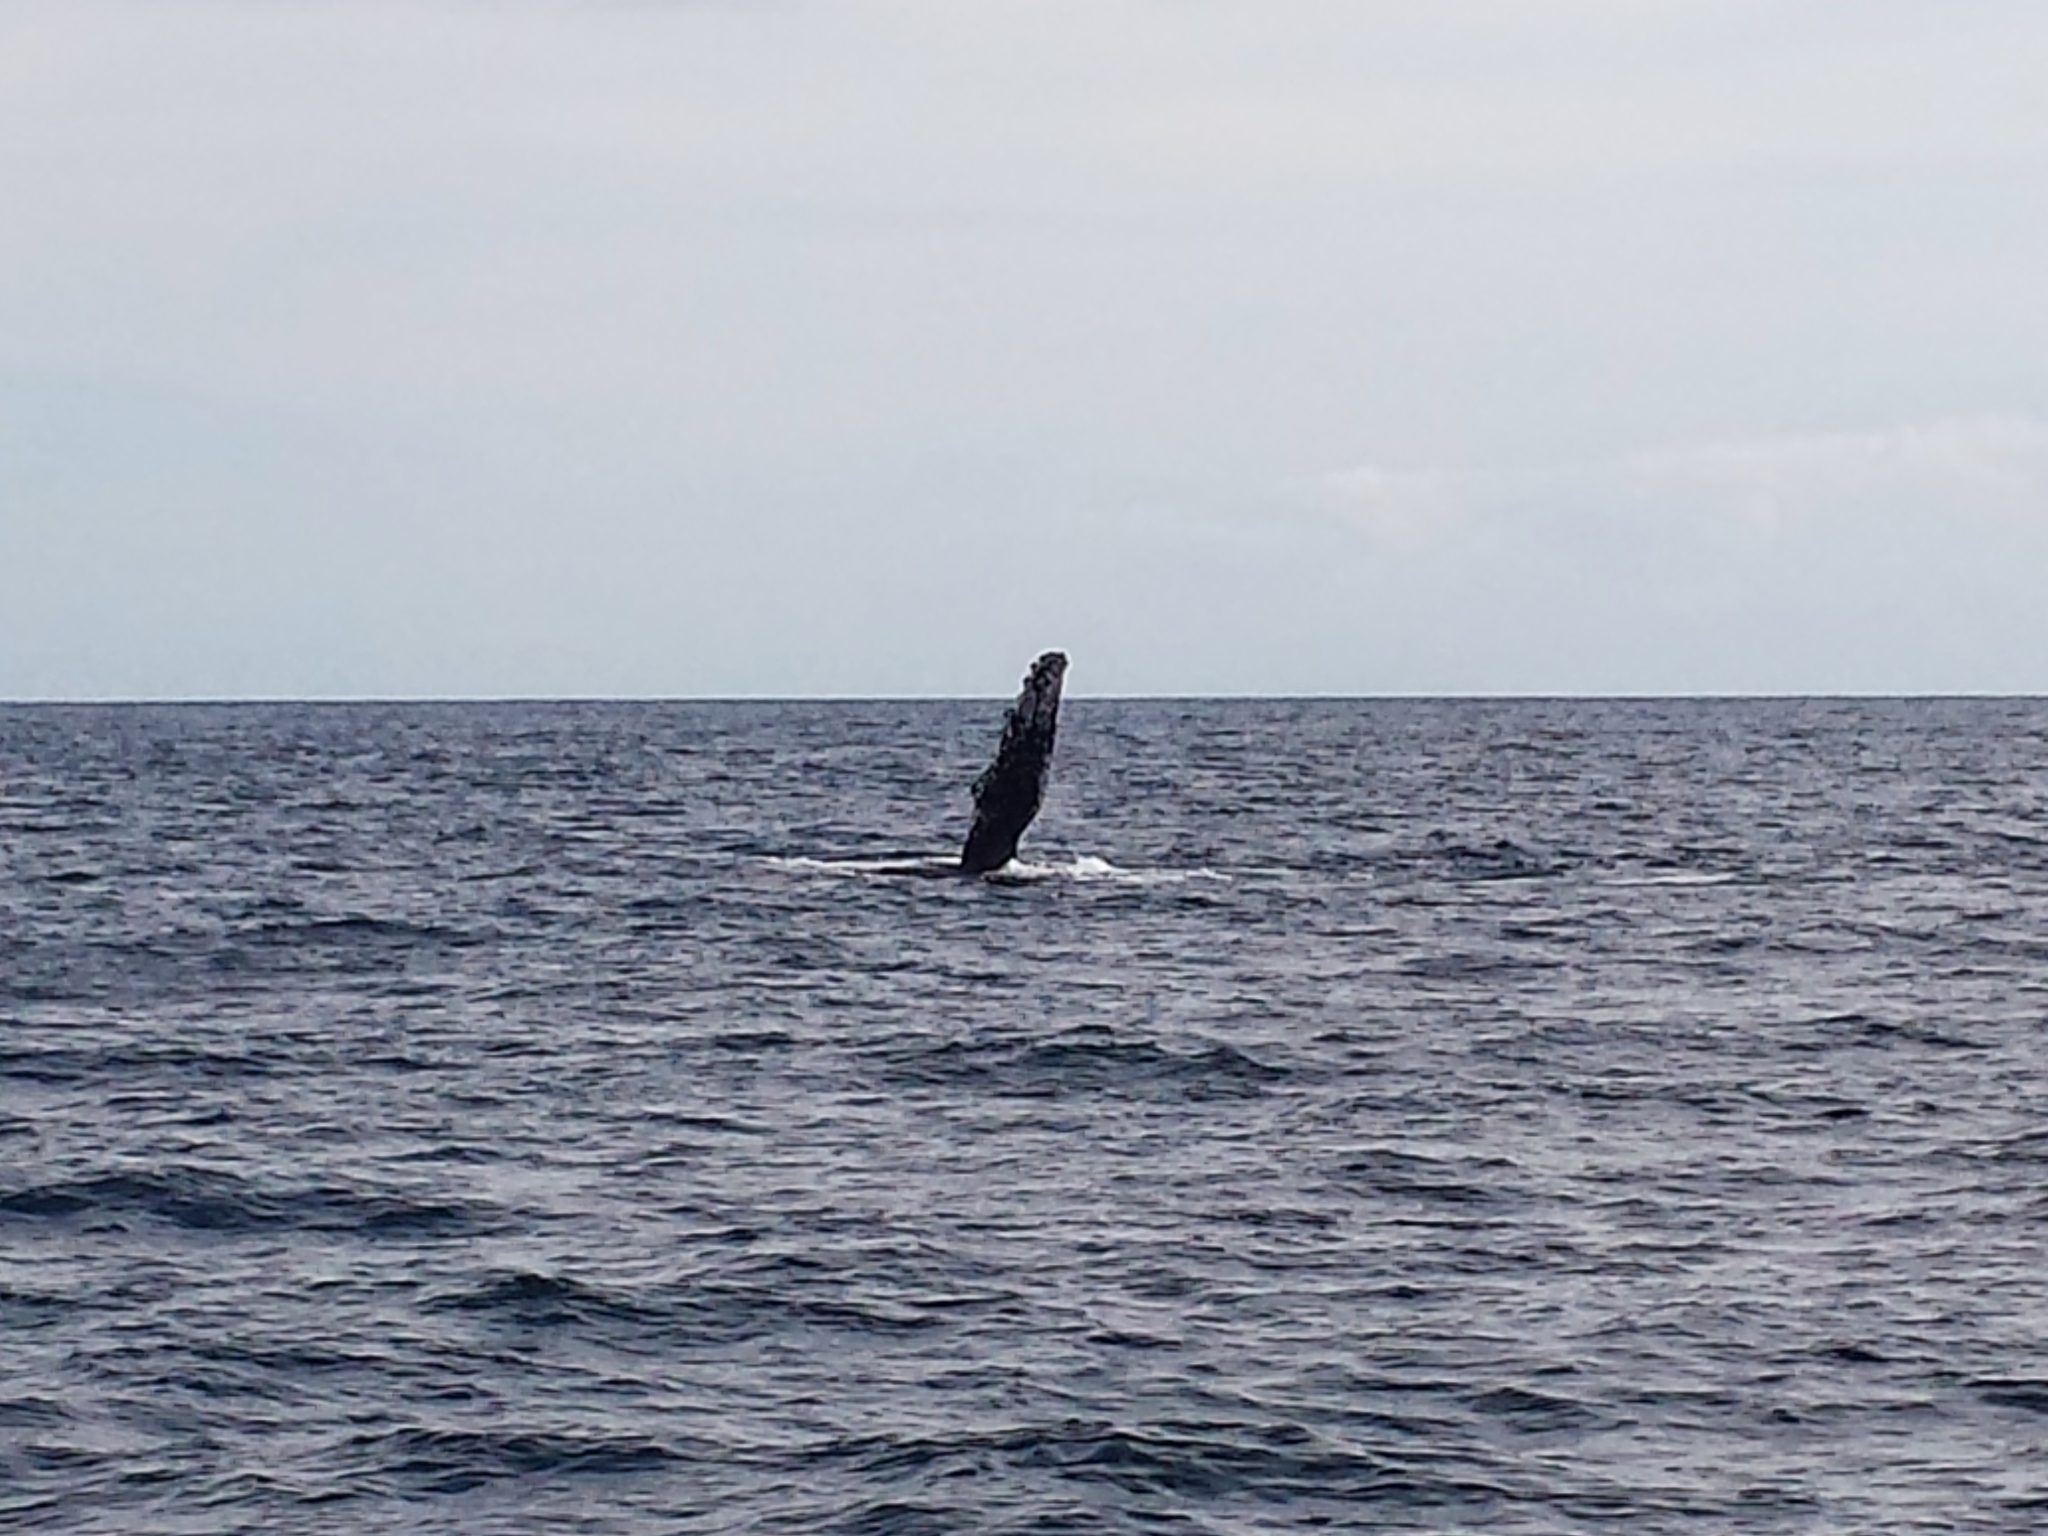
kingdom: Animalia
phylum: Chordata
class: Mammalia
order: Cetacea
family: Balaenopteridae
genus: Megaptera
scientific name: Megaptera novaeangliae
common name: Humpback whale
